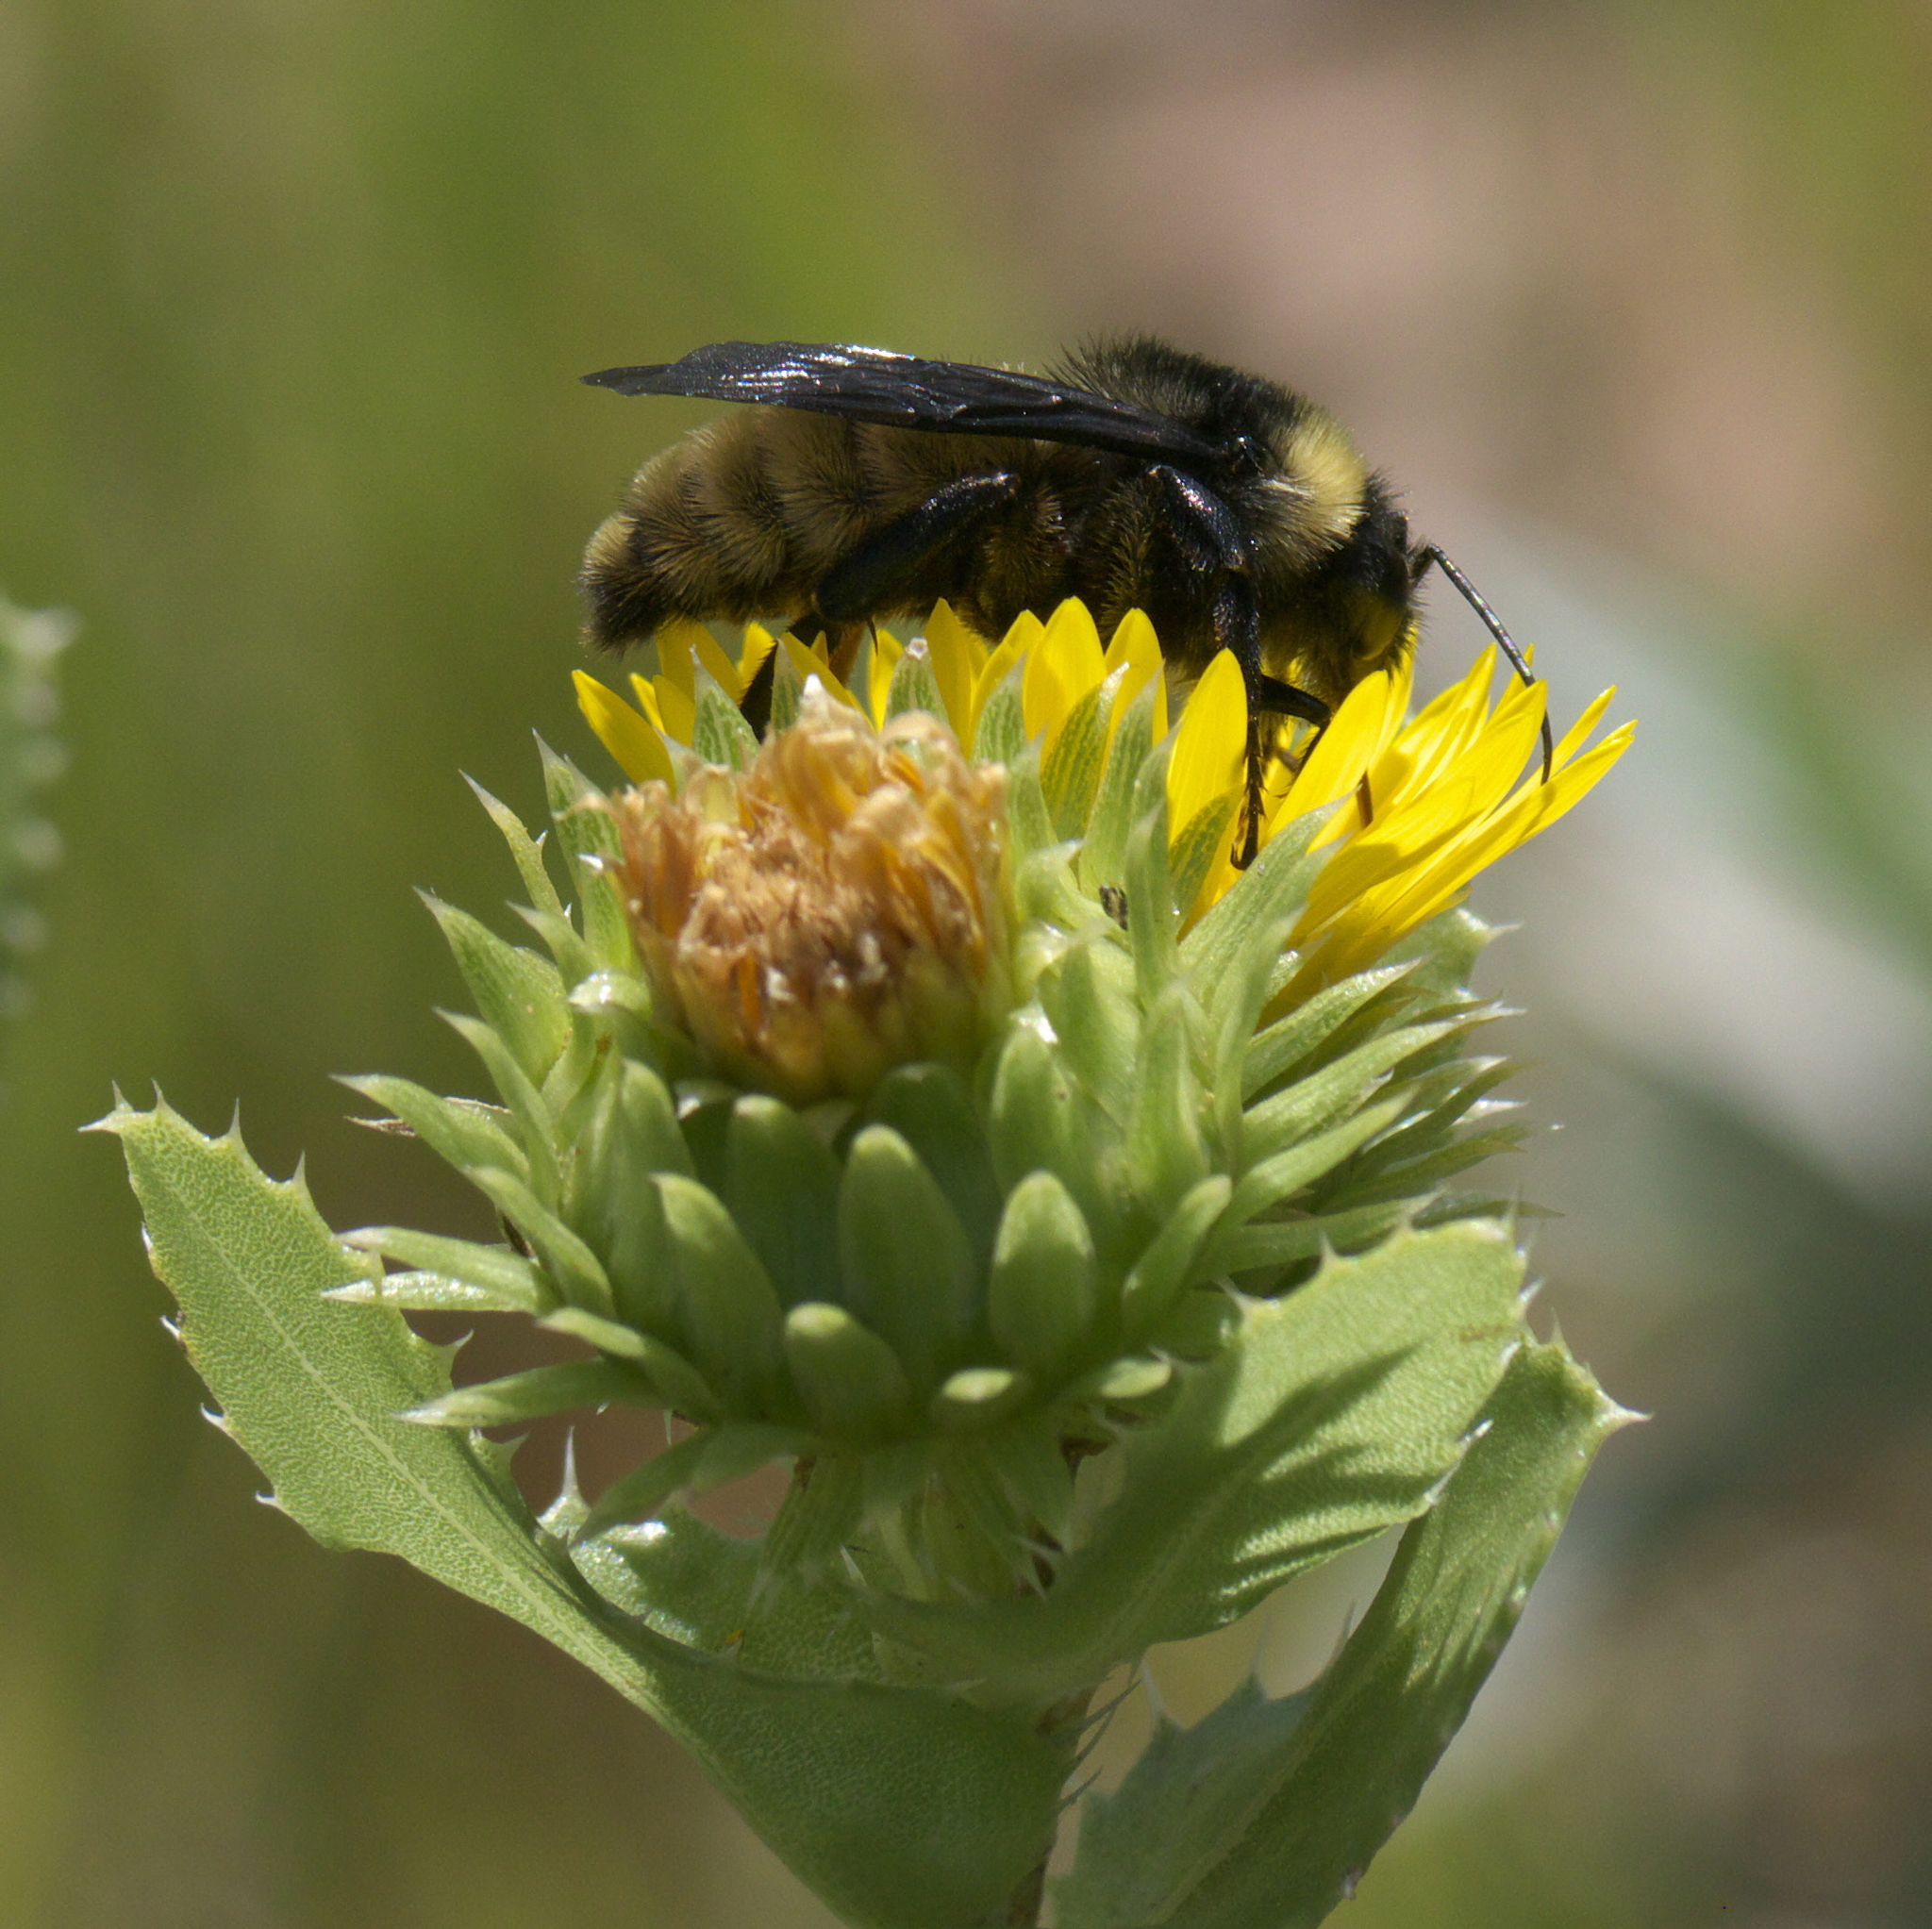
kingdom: Animalia
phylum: Arthropoda
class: Insecta
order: Hymenoptera
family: Apidae
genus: Bombus
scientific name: Bombus pensylvanicus
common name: Bumble bee
